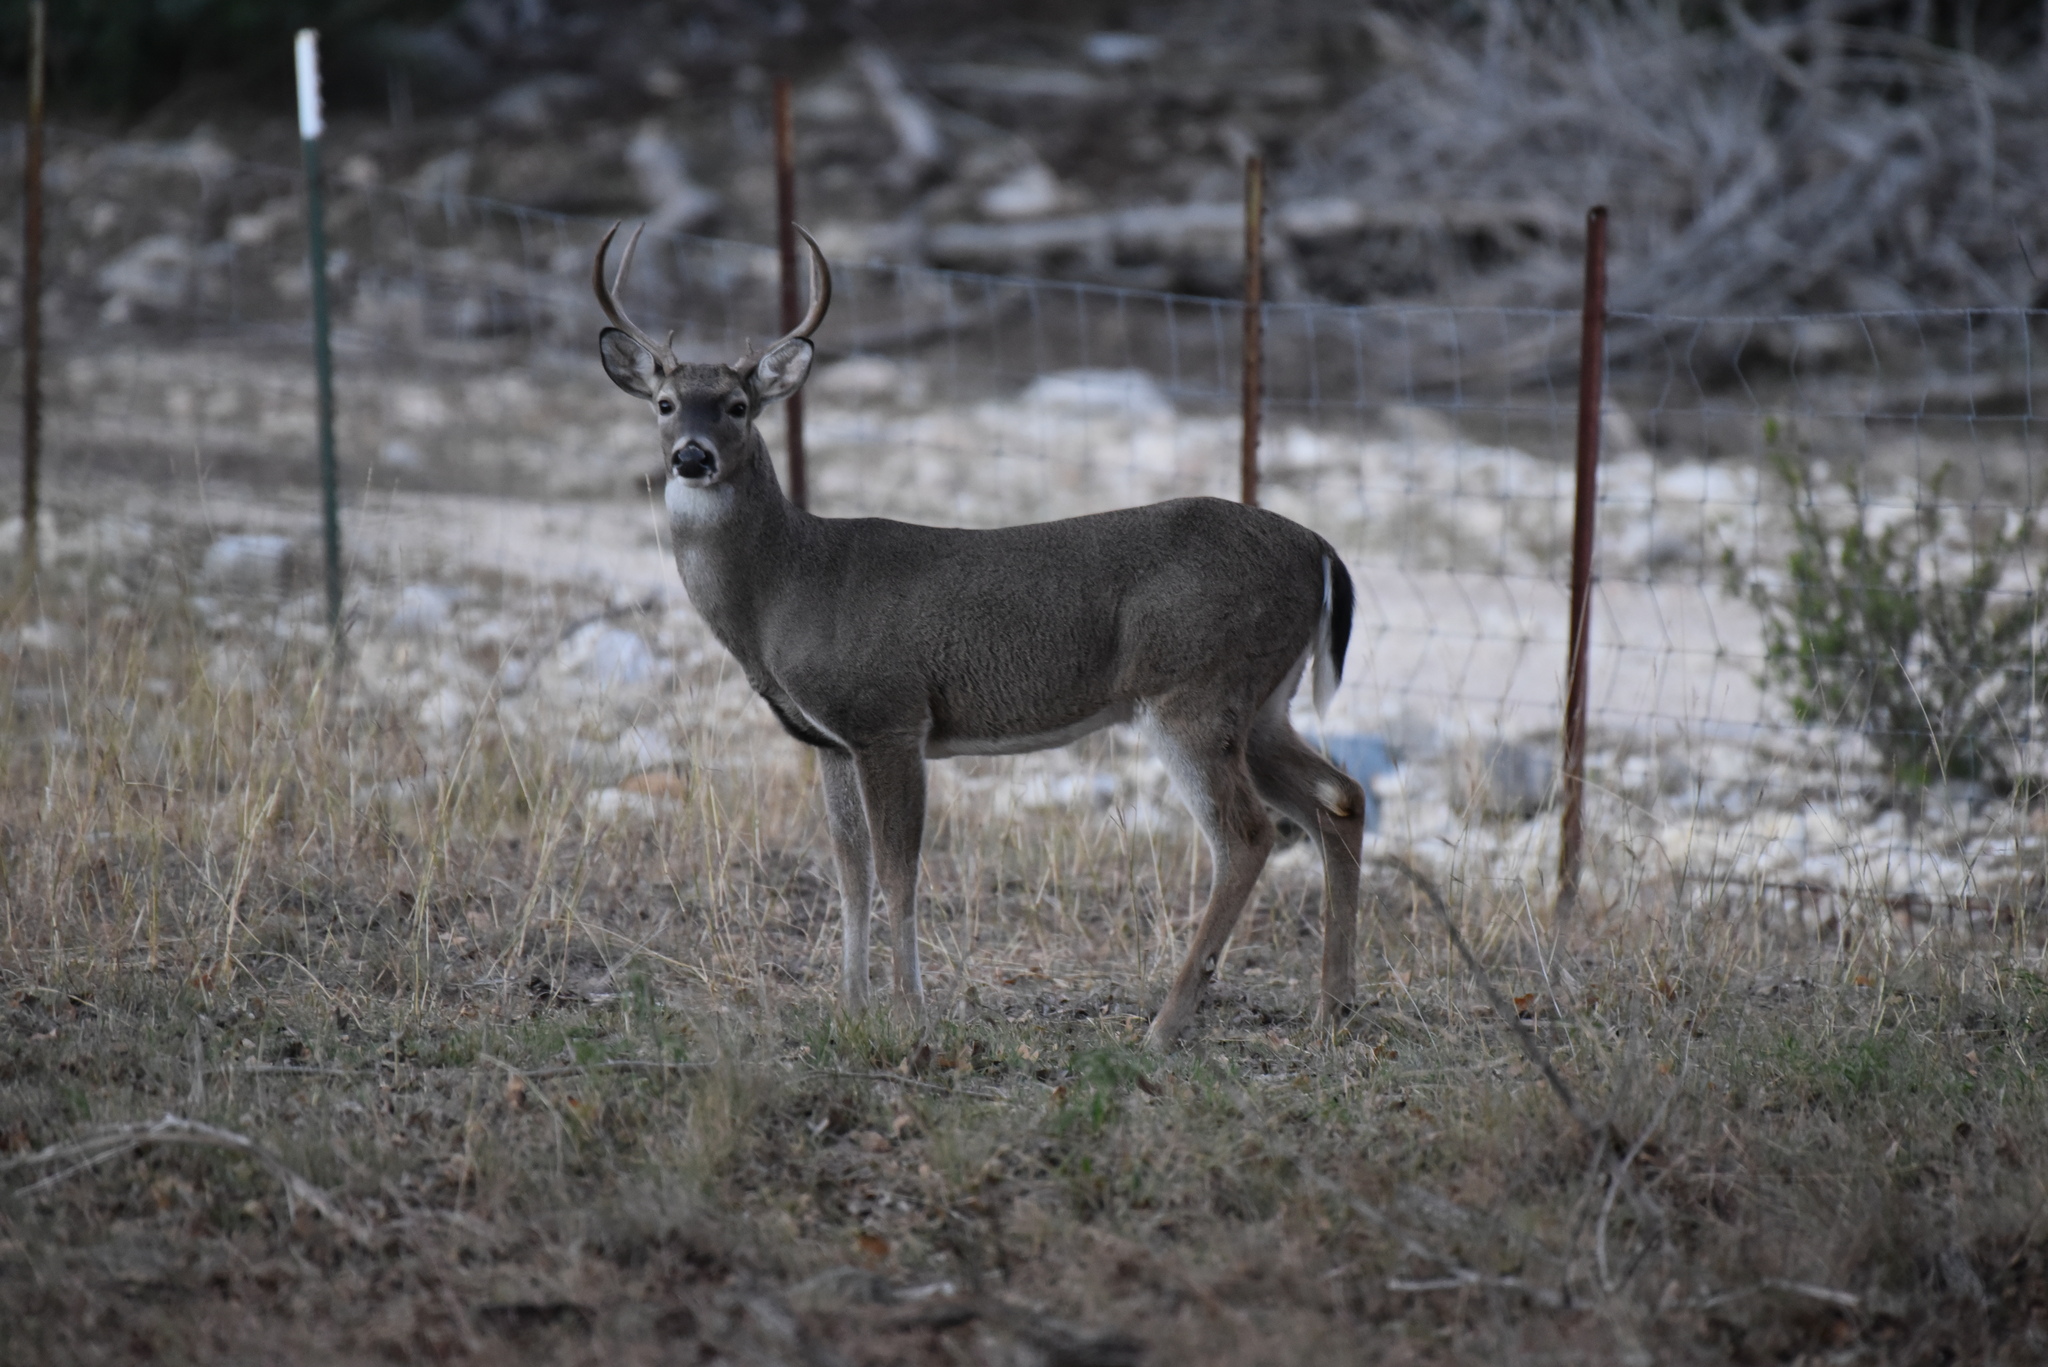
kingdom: Animalia
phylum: Chordata
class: Mammalia
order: Artiodactyla
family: Cervidae
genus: Odocoileus
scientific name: Odocoileus virginianus
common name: White-tailed deer
